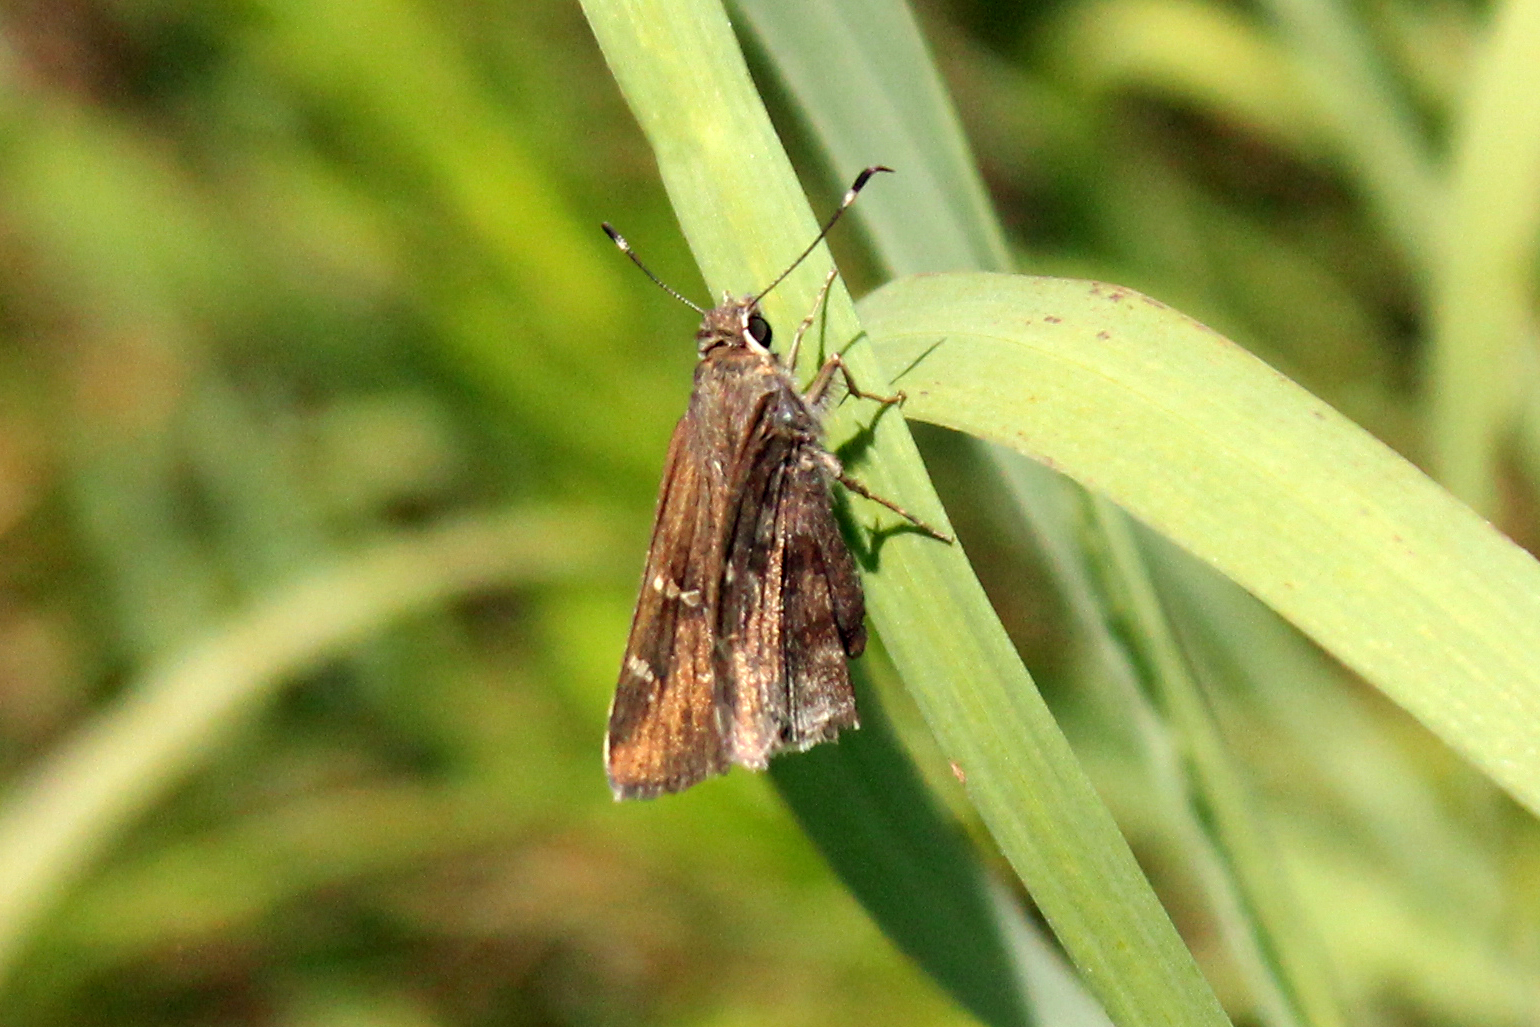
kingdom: Animalia
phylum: Arthropoda
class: Insecta
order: Lepidoptera
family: Hesperiidae
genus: Cogia
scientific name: Cogia hippalus
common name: Acacia skipper
